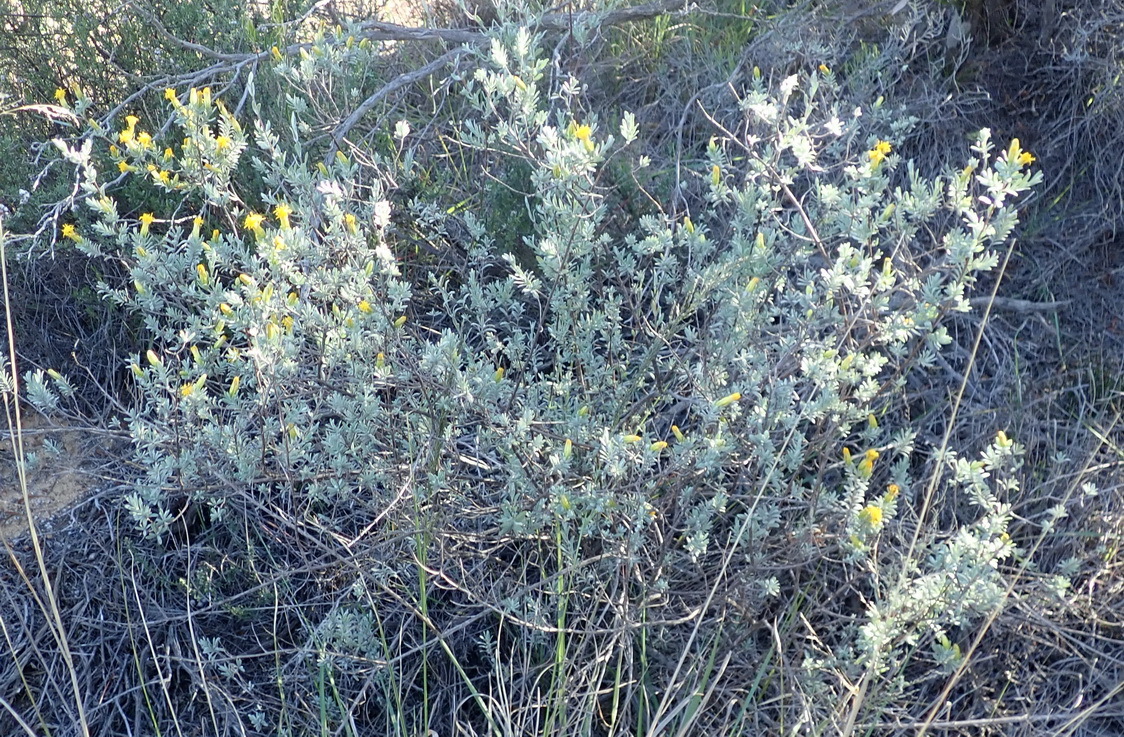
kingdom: Plantae
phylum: Tracheophyta
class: Magnoliopsida
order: Asterales
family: Asteraceae
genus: Pteronia
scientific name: Pteronia incana
